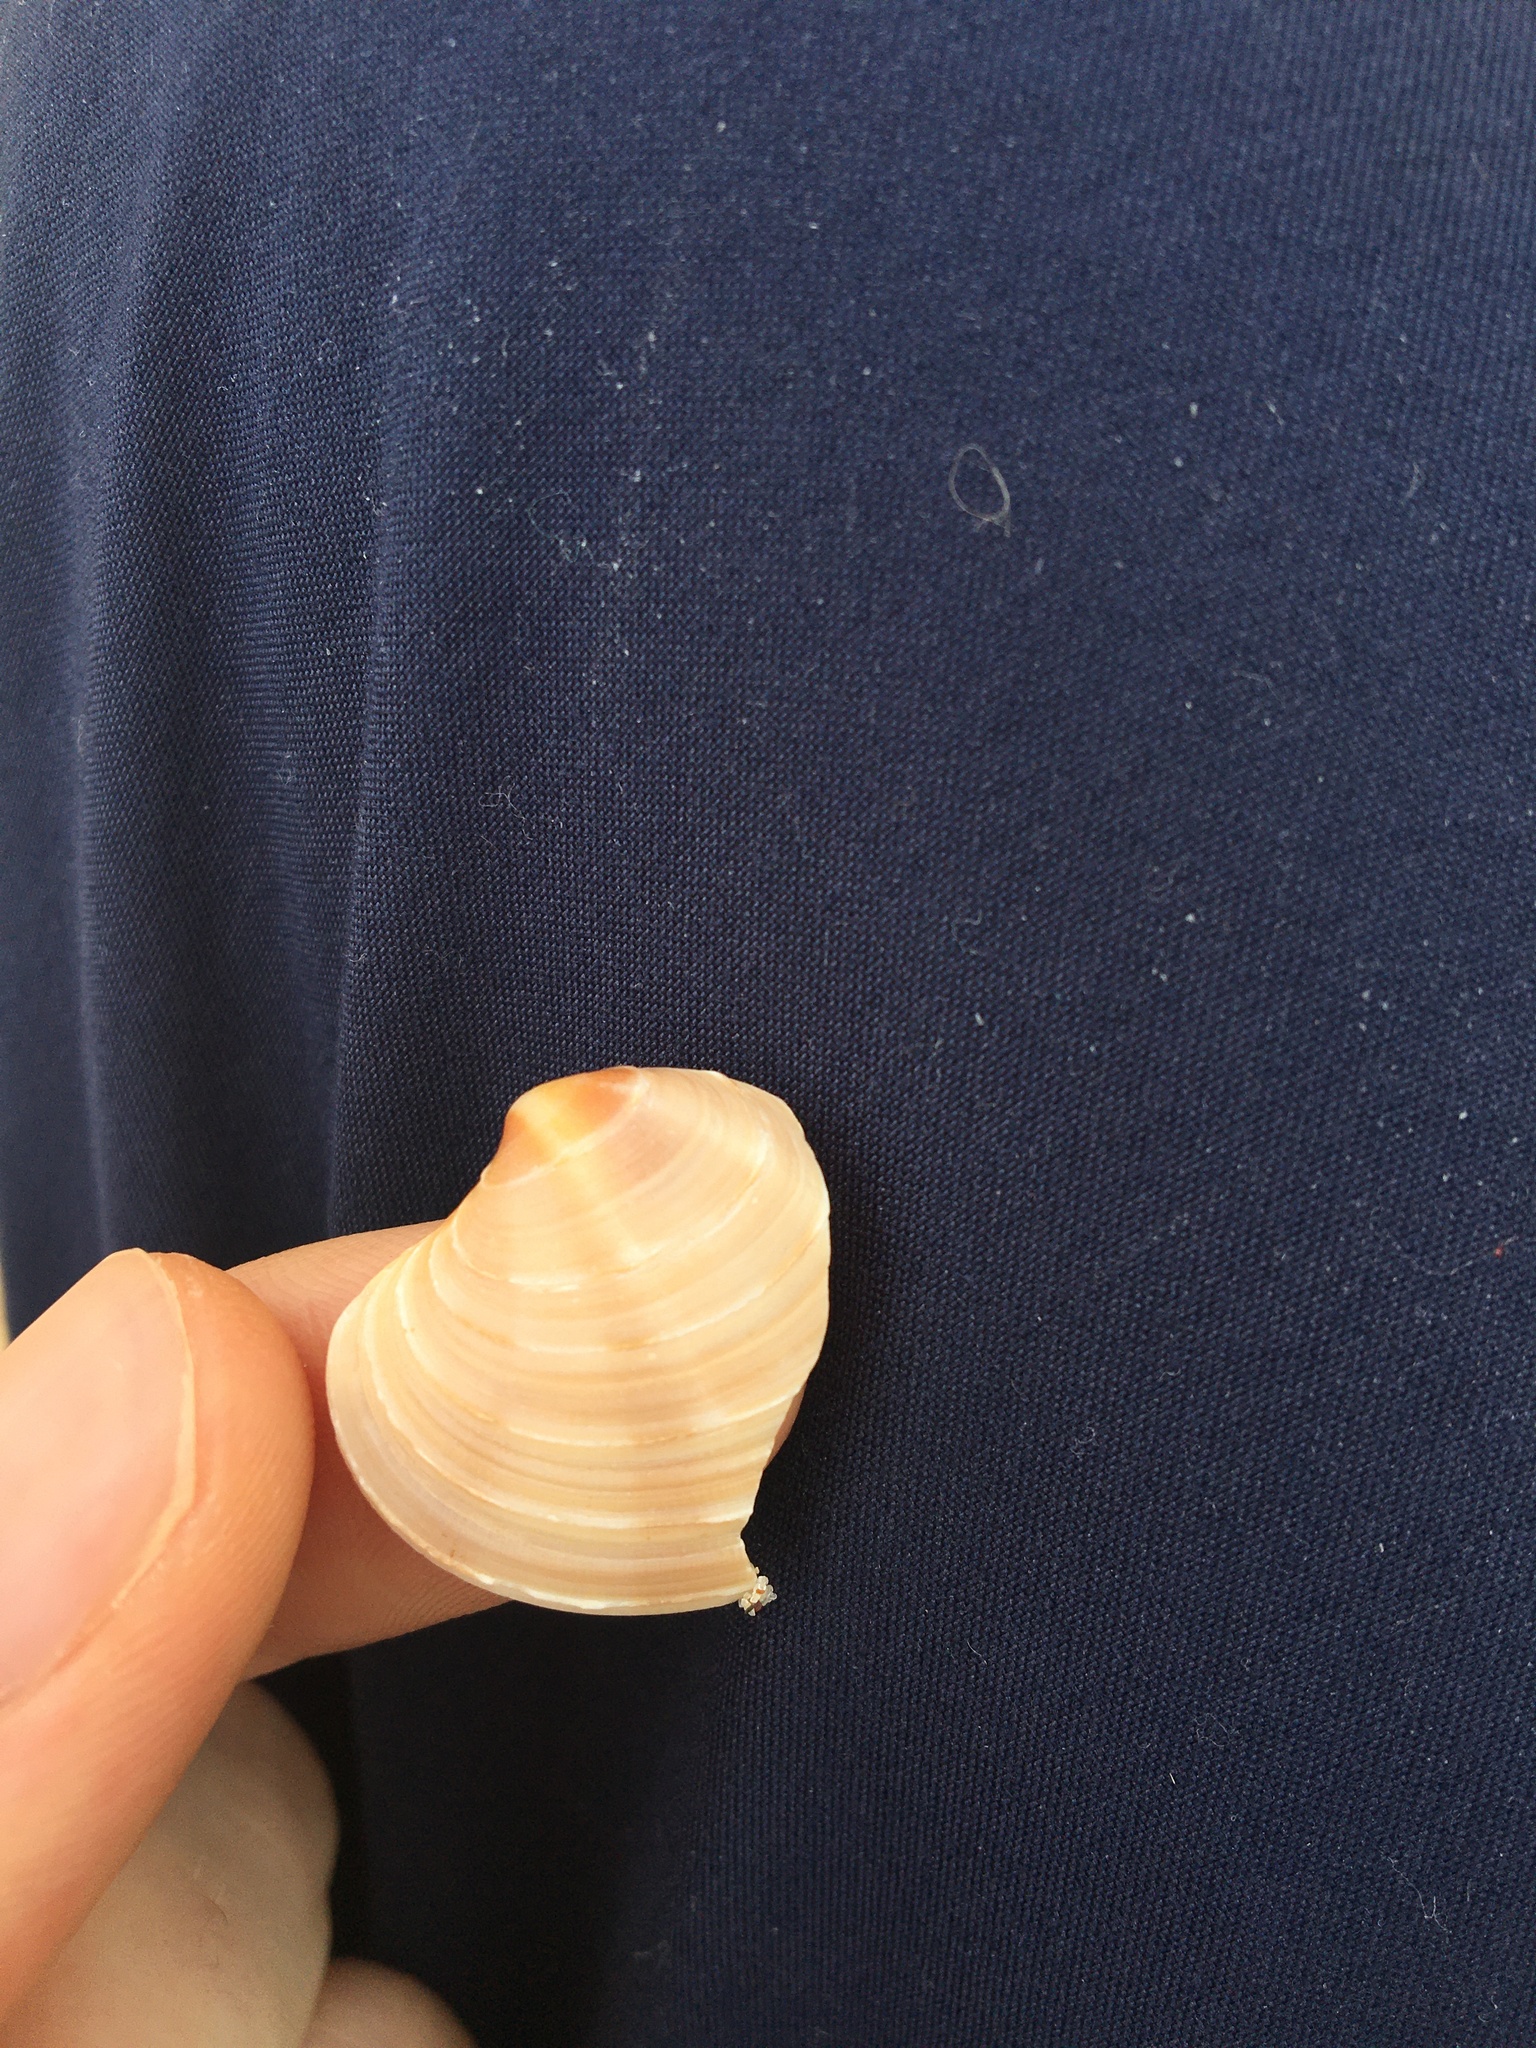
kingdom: Animalia
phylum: Mollusca
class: Bivalvia
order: Venerida
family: Veneridae
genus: Bassina
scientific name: Bassina jacksonii
